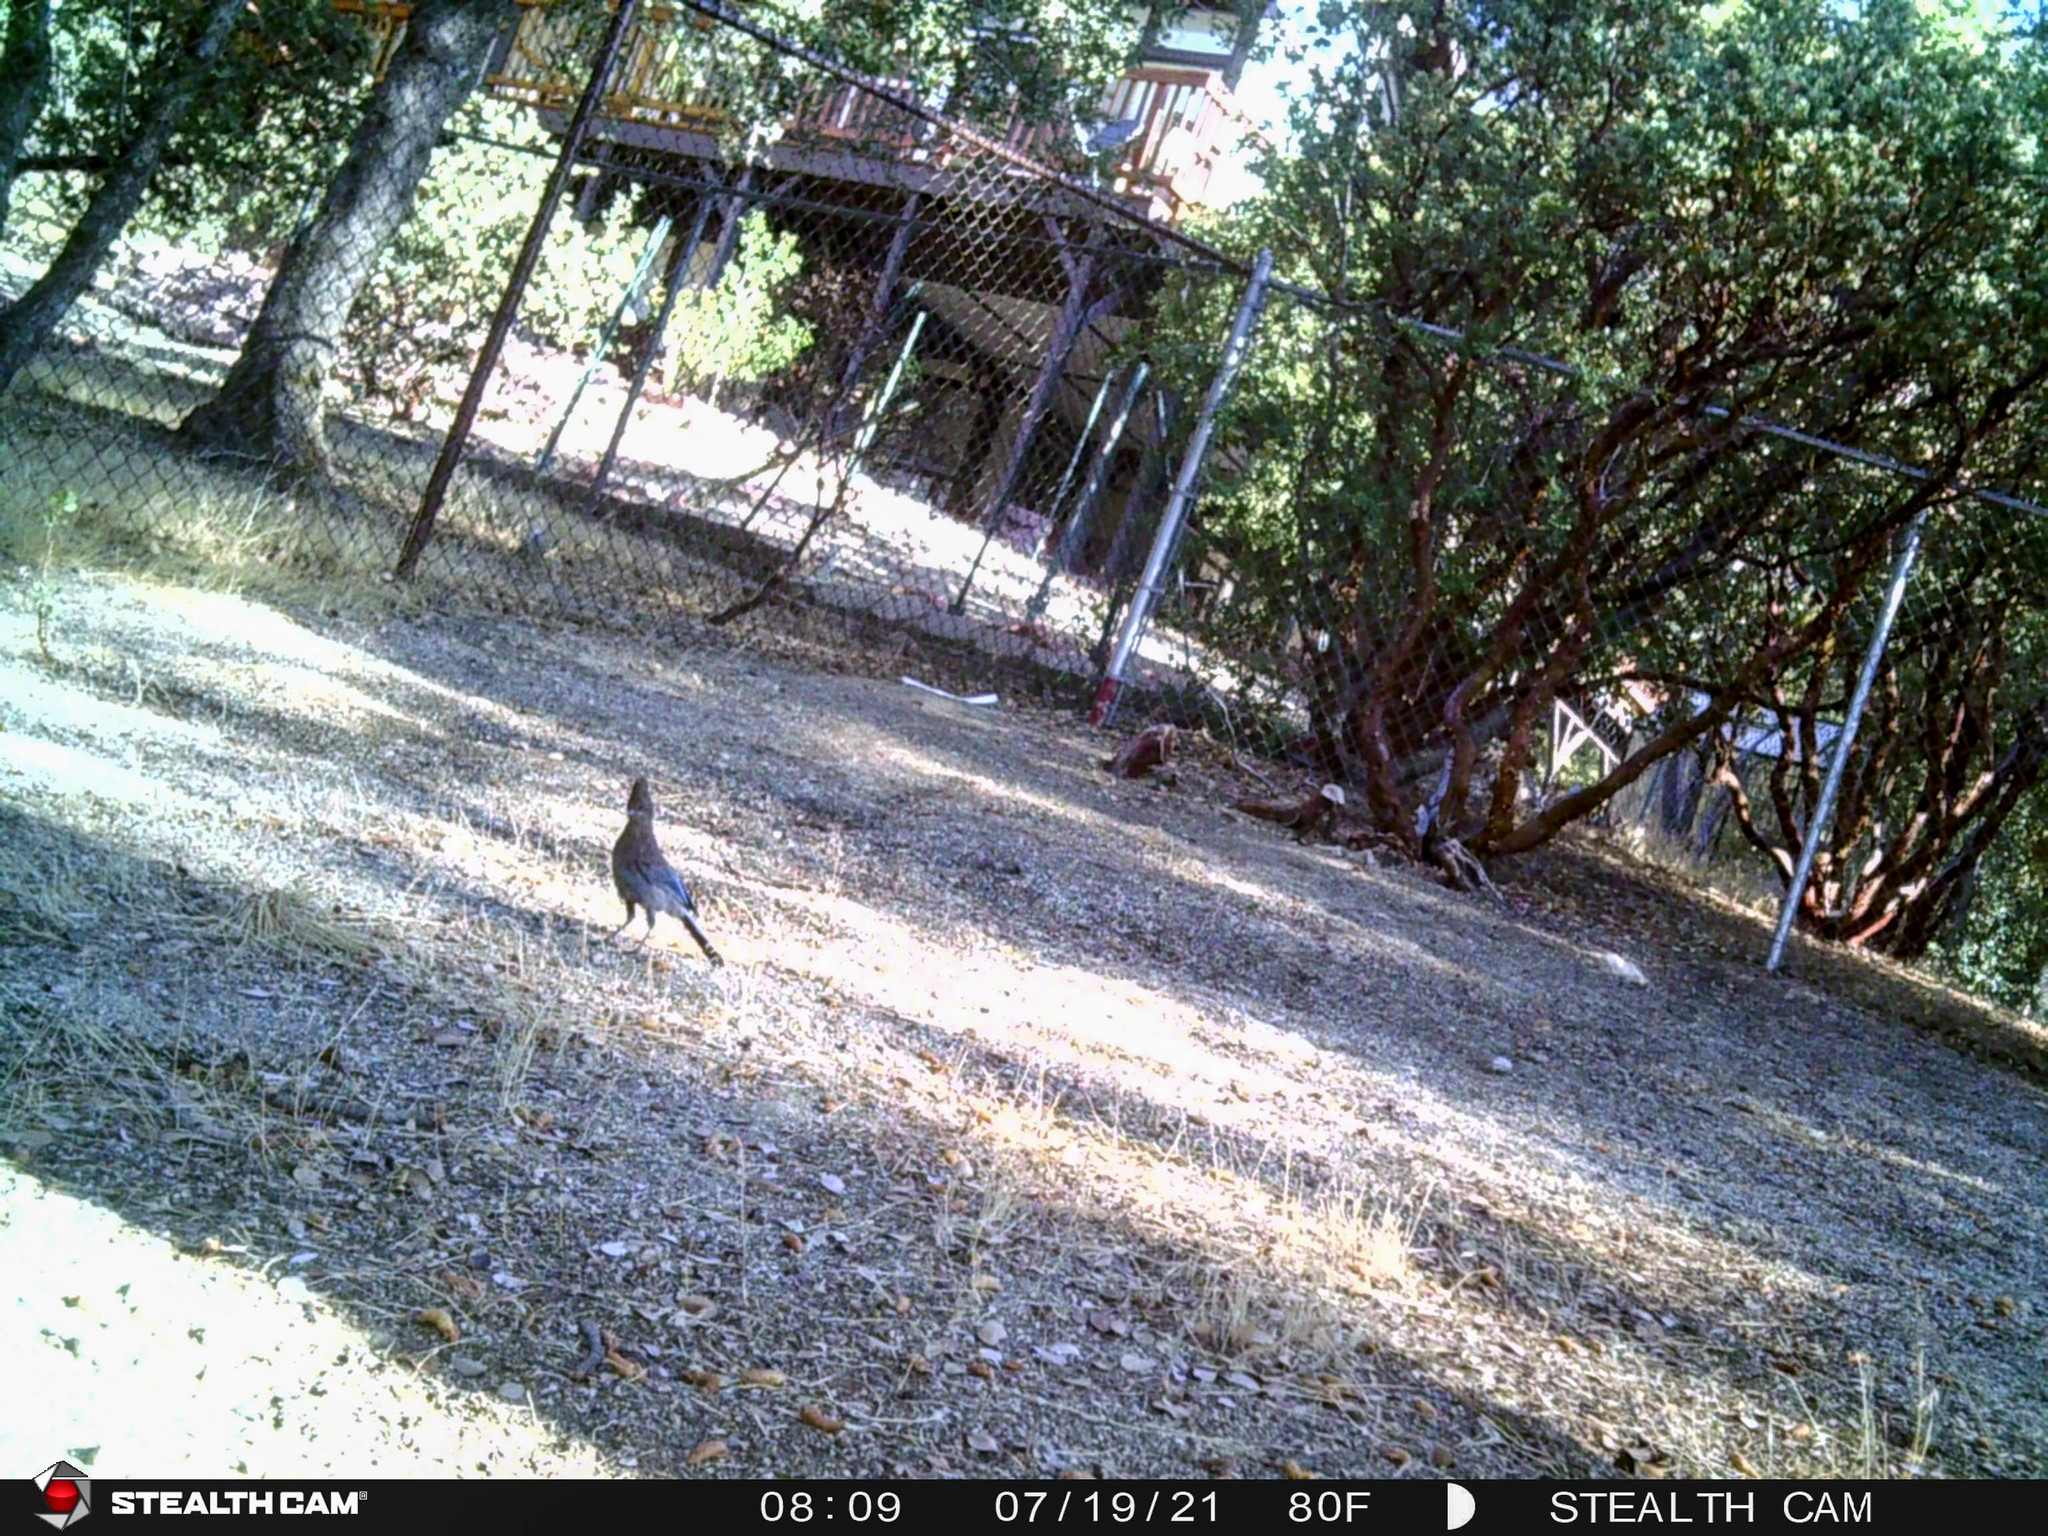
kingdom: Animalia
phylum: Chordata
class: Aves
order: Passeriformes
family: Corvidae
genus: Cyanocitta
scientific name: Cyanocitta stelleri
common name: Steller's jay
